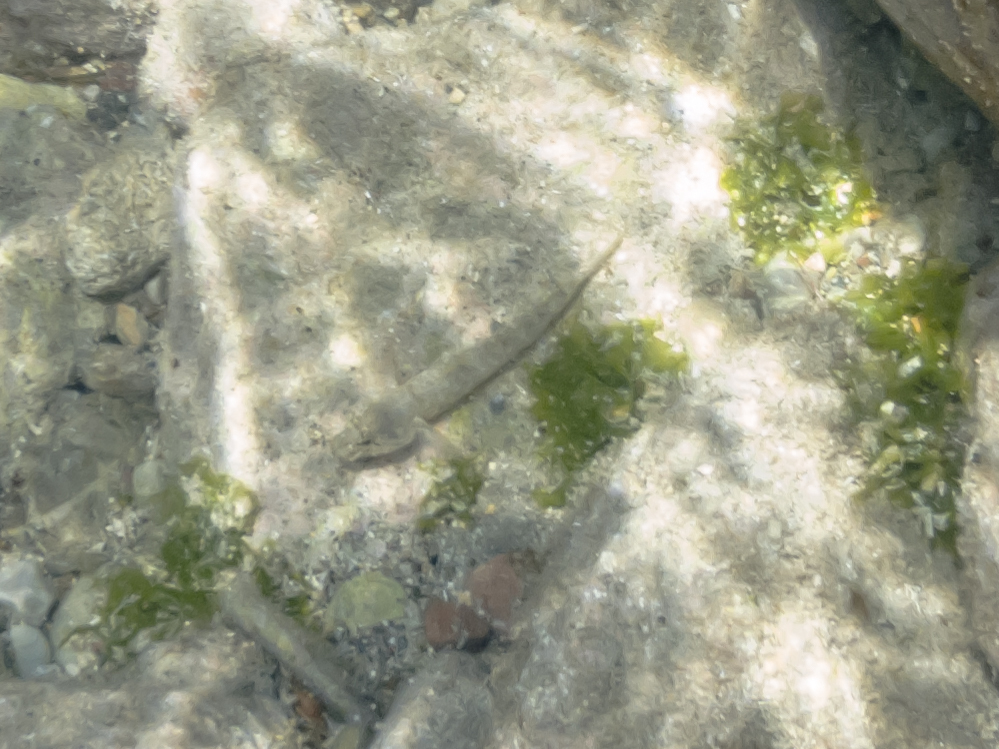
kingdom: Animalia
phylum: Chordata
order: Perciformes
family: Gobiidae
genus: Gobius
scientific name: Gobius incognitus
